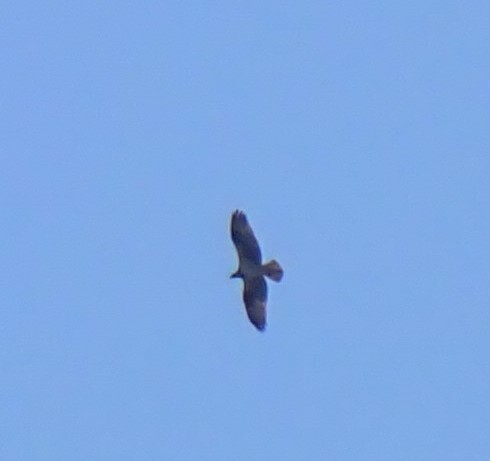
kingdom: Animalia
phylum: Chordata
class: Aves
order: Accipitriformes
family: Pandionidae
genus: Pandion
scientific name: Pandion haliaetus
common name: Osprey
